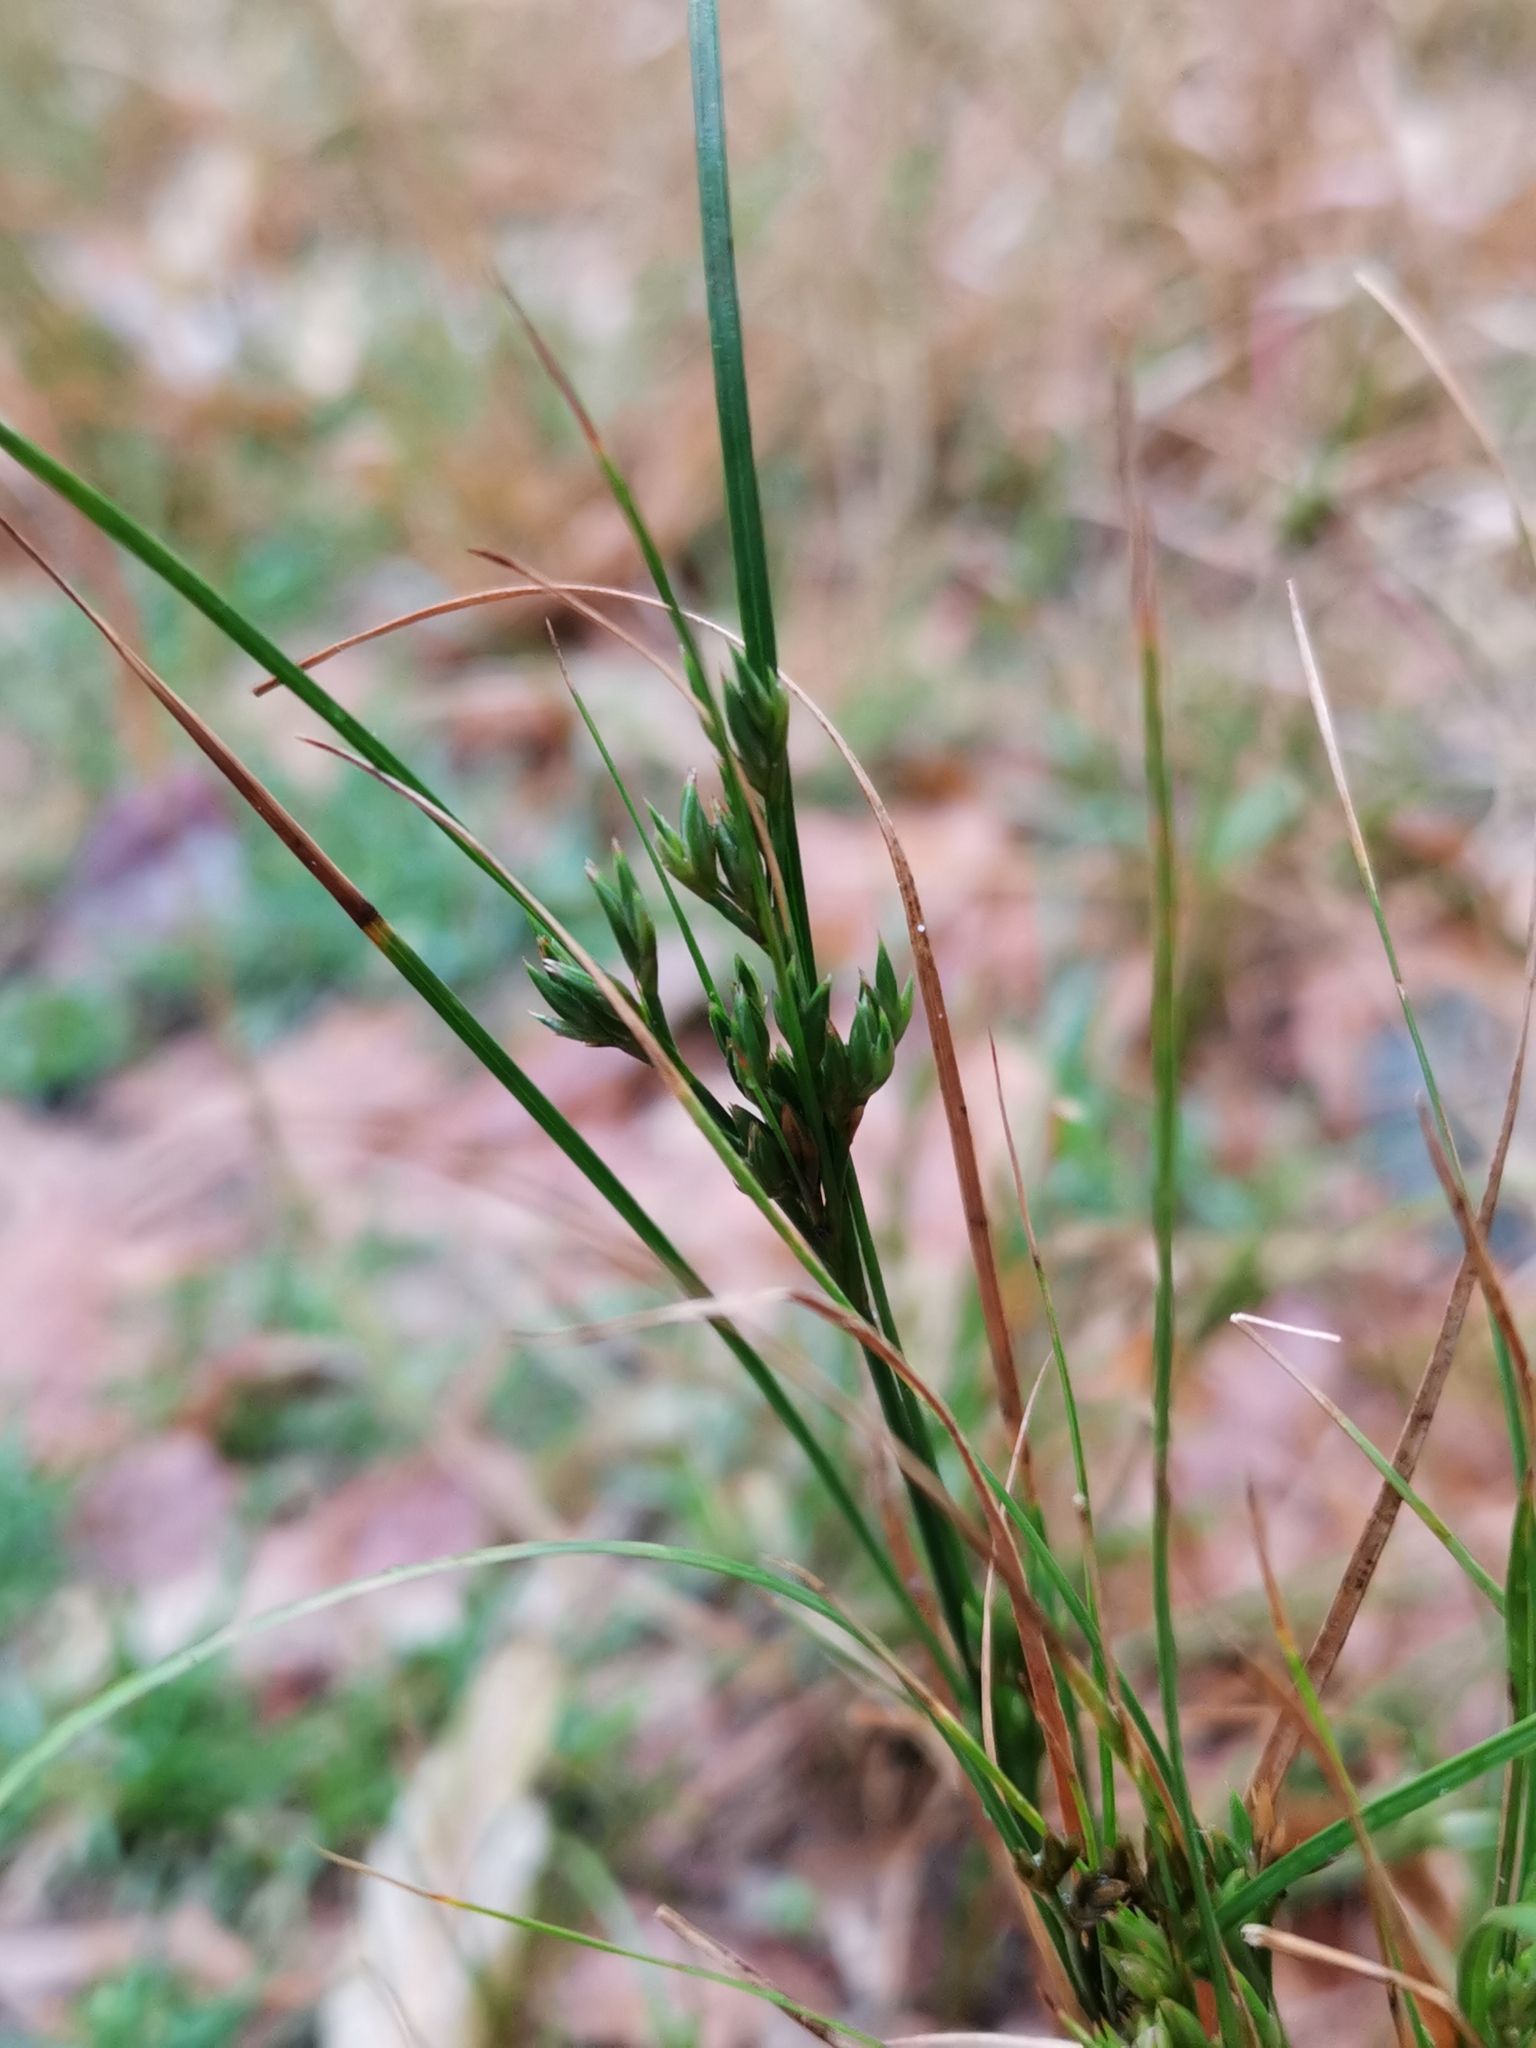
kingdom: Plantae
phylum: Tracheophyta
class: Liliopsida
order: Poales
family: Juncaceae
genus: Juncus
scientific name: Juncus tenuis
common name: Slender rush
